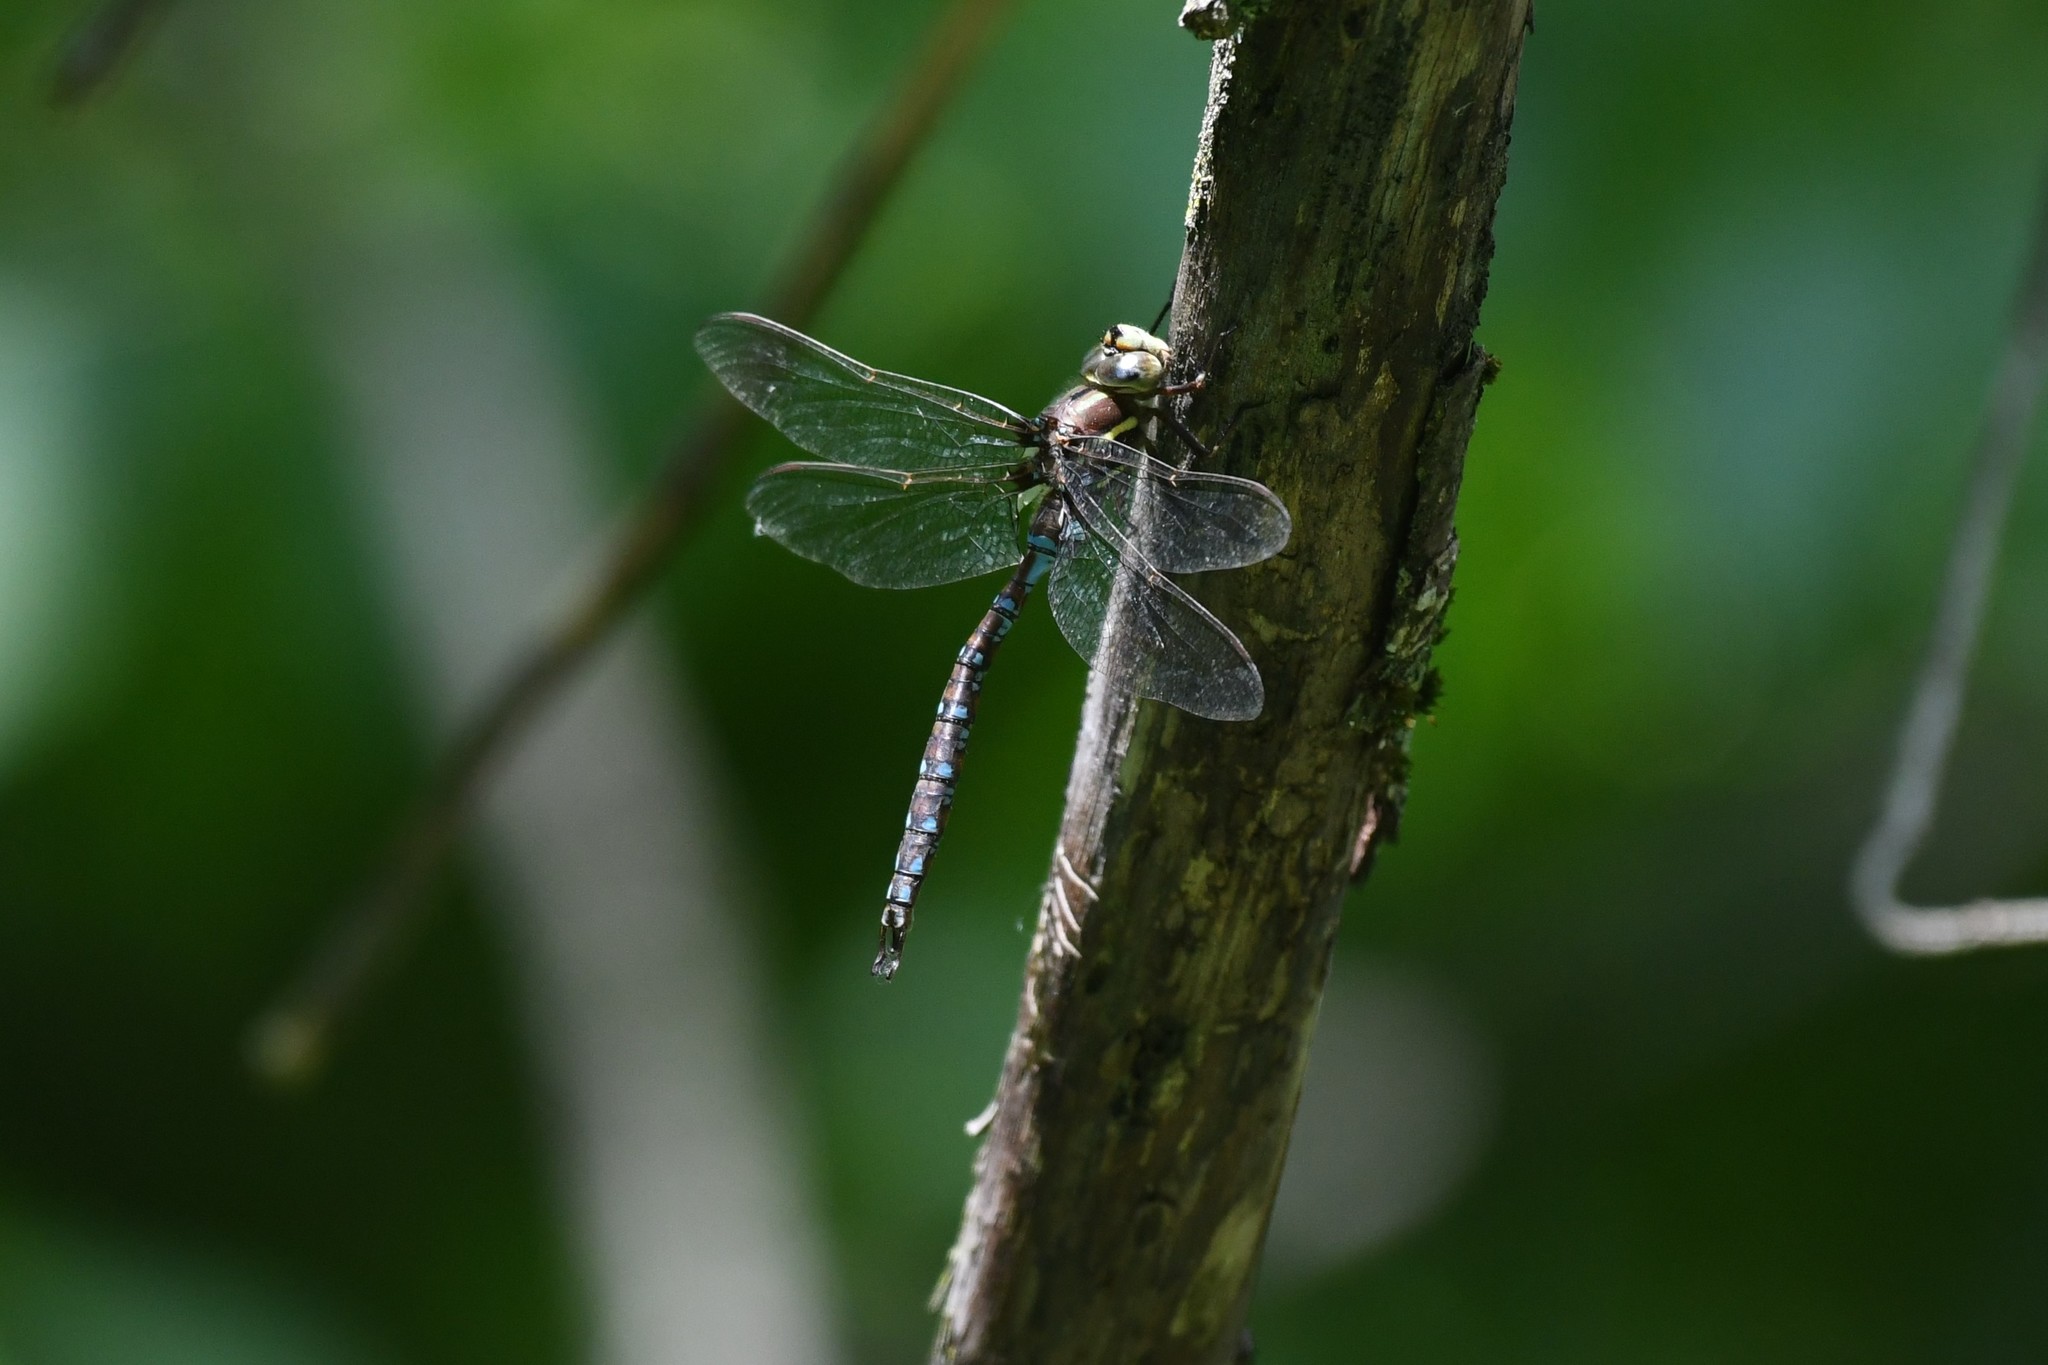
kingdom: Animalia
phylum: Arthropoda
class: Insecta
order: Odonata
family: Aeshnidae
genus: Basiaeschna
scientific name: Basiaeschna janata
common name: Springtime darner
